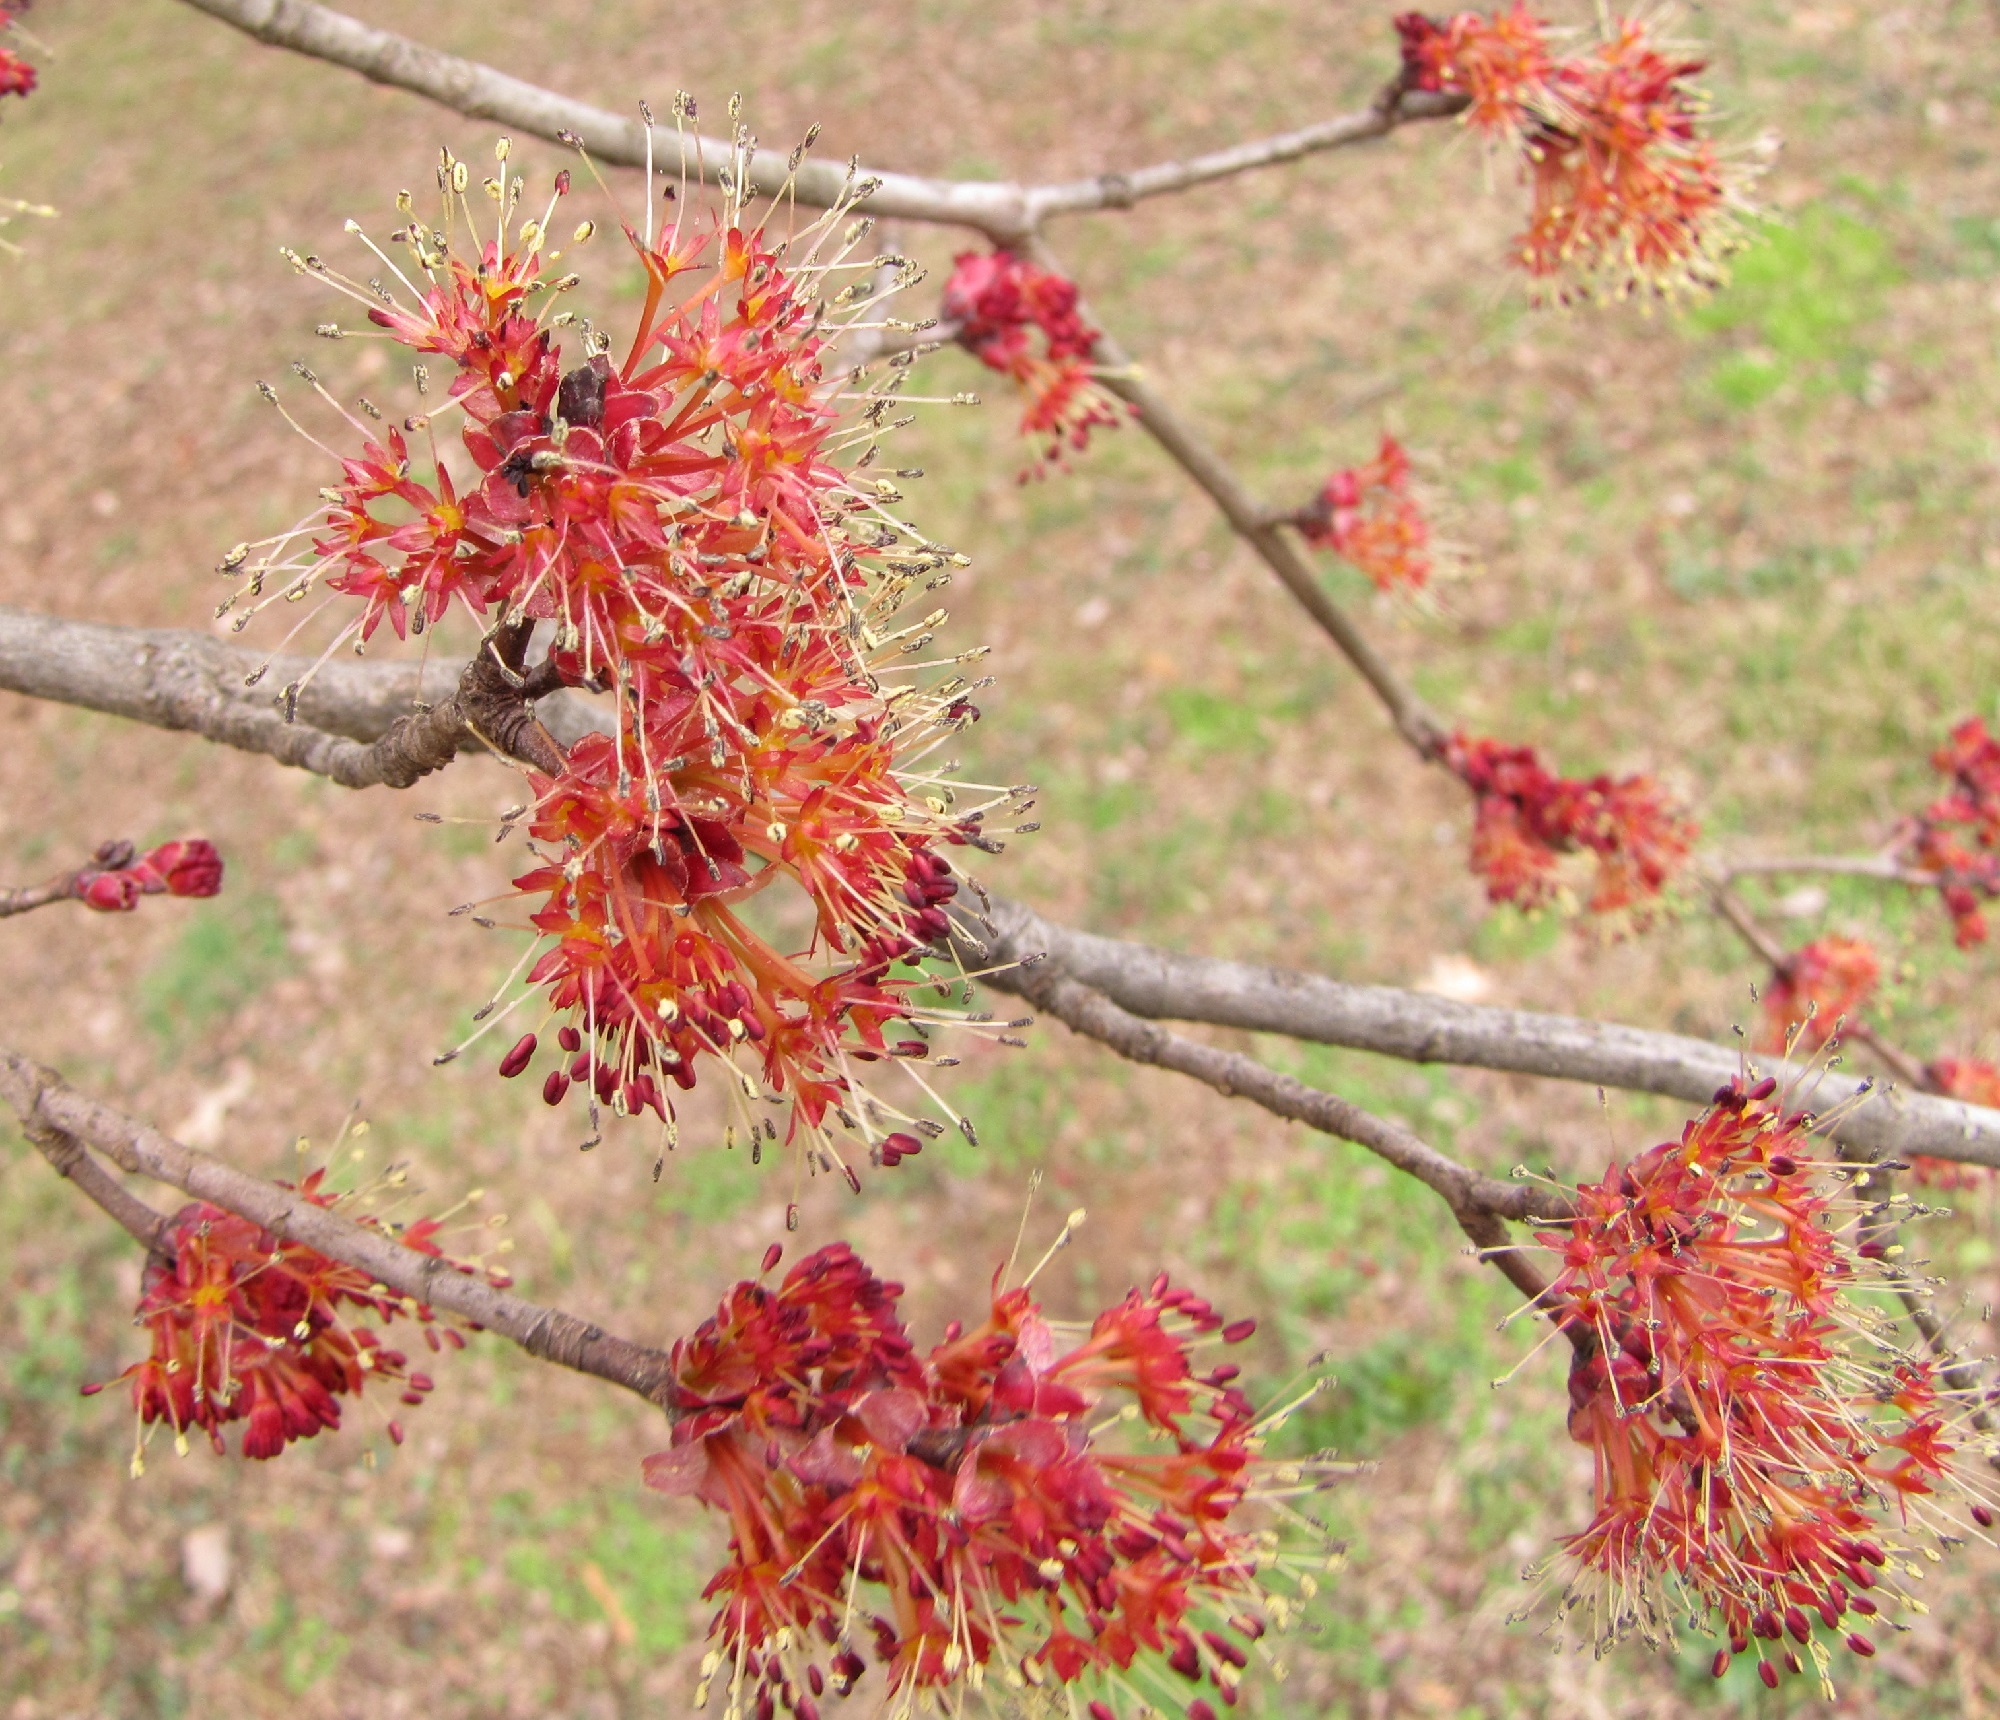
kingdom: Plantae
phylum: Tracheophyta
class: Magnoliopsida
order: Sapindales
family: Sapindaceae
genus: Acer
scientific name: Acer rubrum
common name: Red maple
